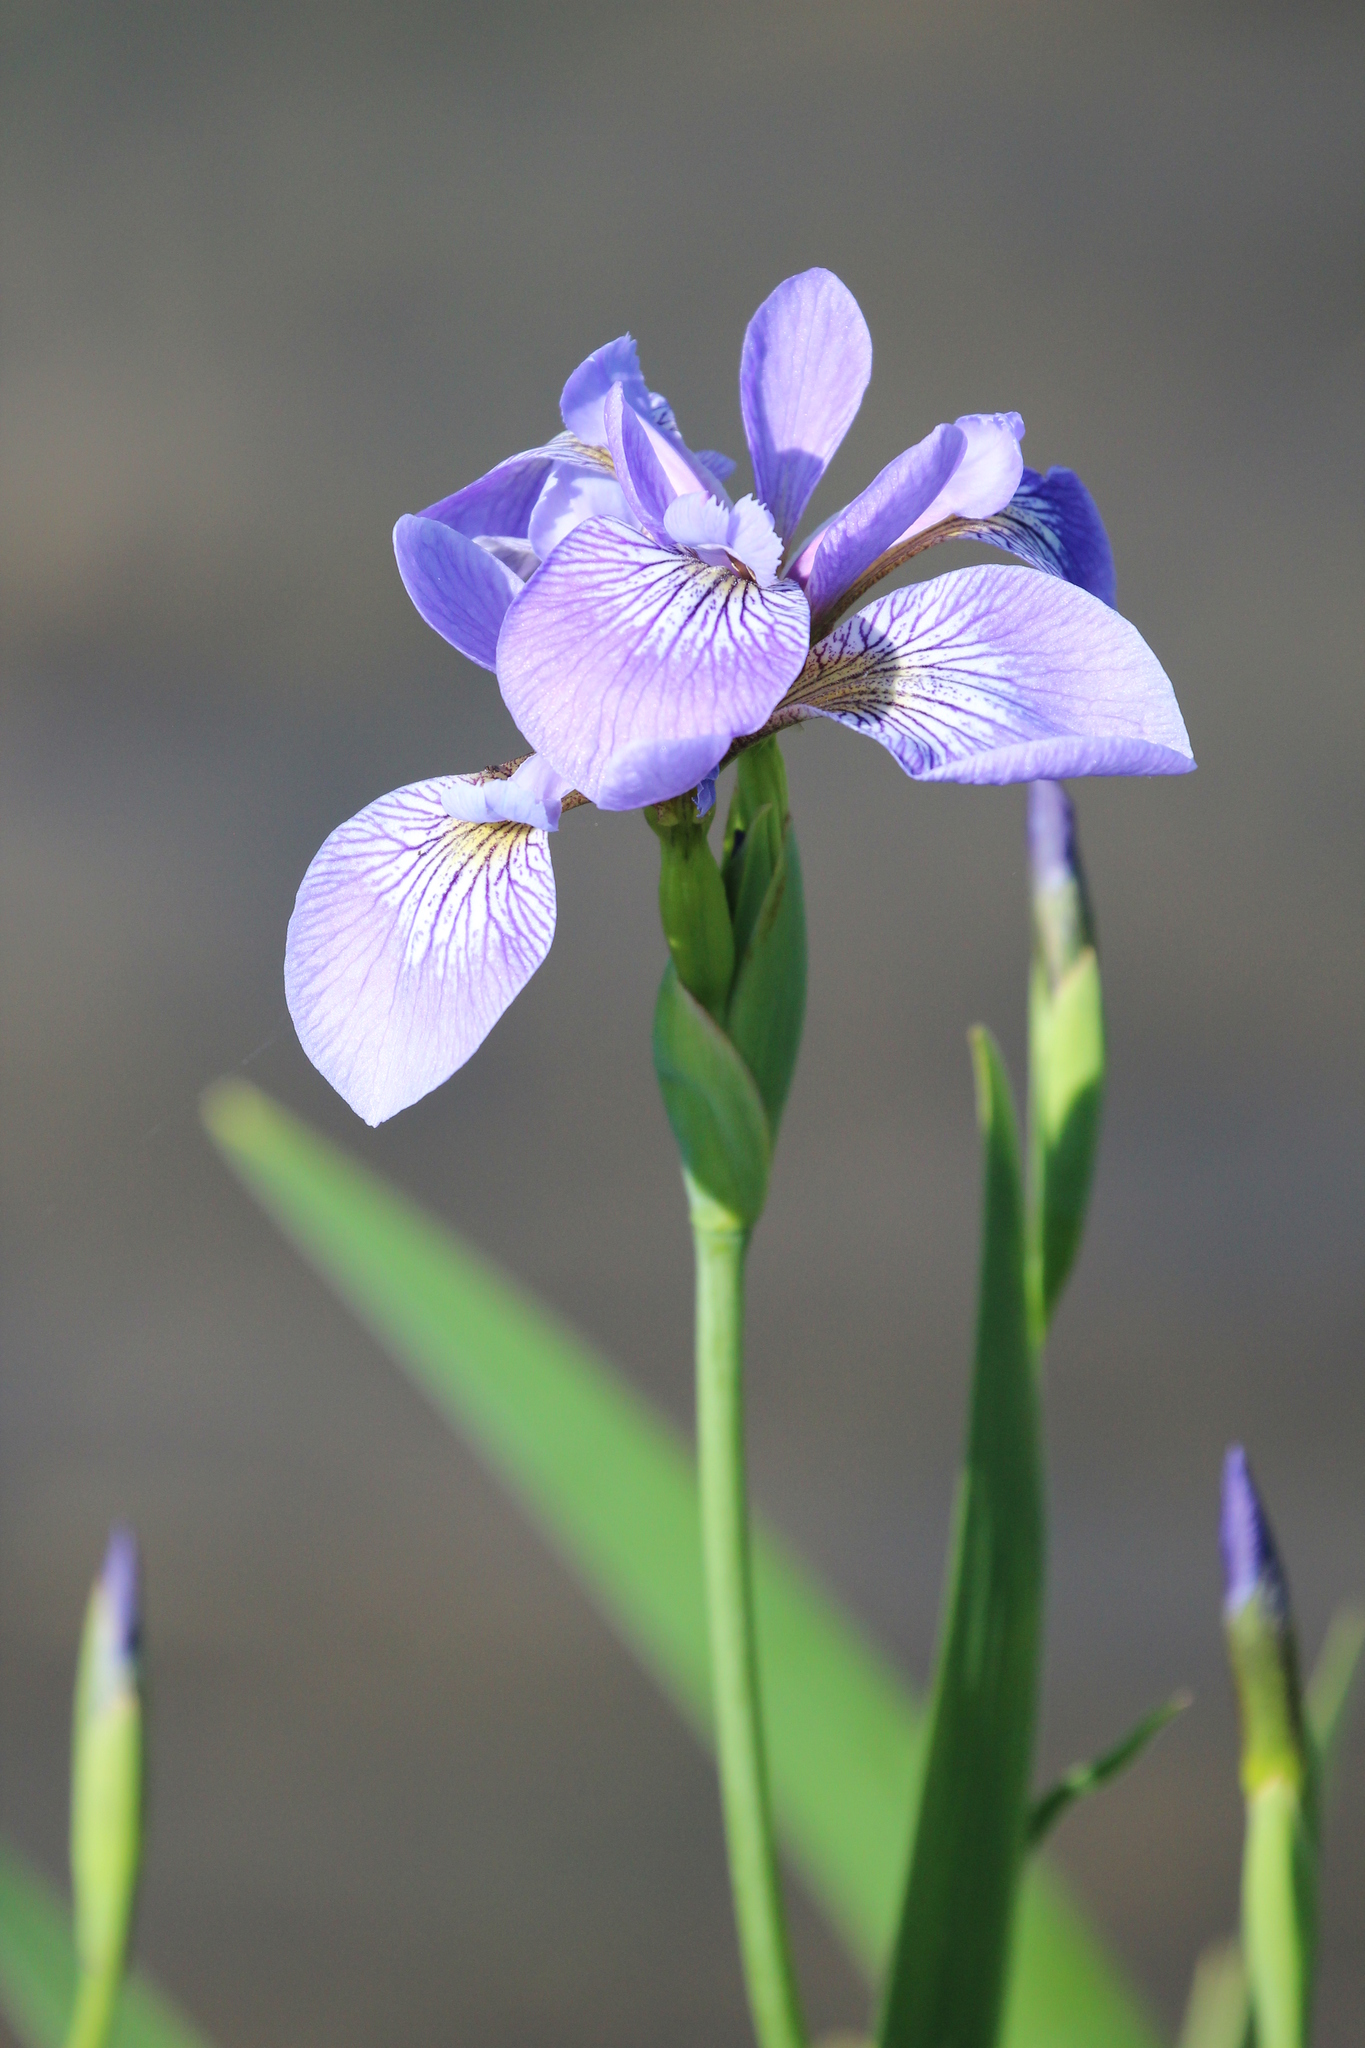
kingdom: Plantae
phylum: Tracheophyta
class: Liliopsida
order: Asparagales
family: Iridaceae
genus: Iris
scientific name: Iris versicolor
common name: Purple iris
